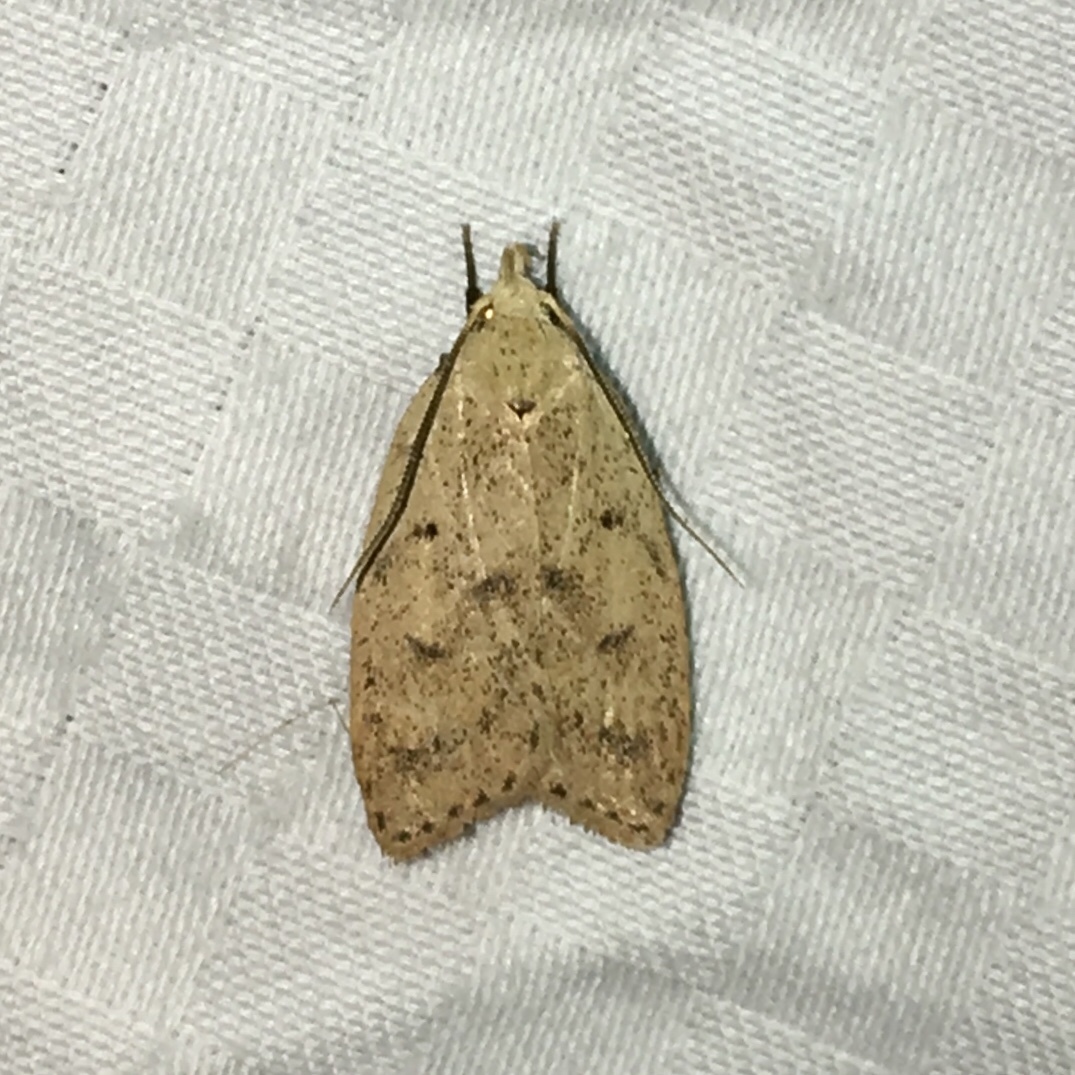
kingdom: Animalia
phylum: Arthropoda
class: Insecta
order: Lepidoptera
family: Peleopodidae
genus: Machimia
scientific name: Machimia tentoriferella
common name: Gold-striped leaftier moth
